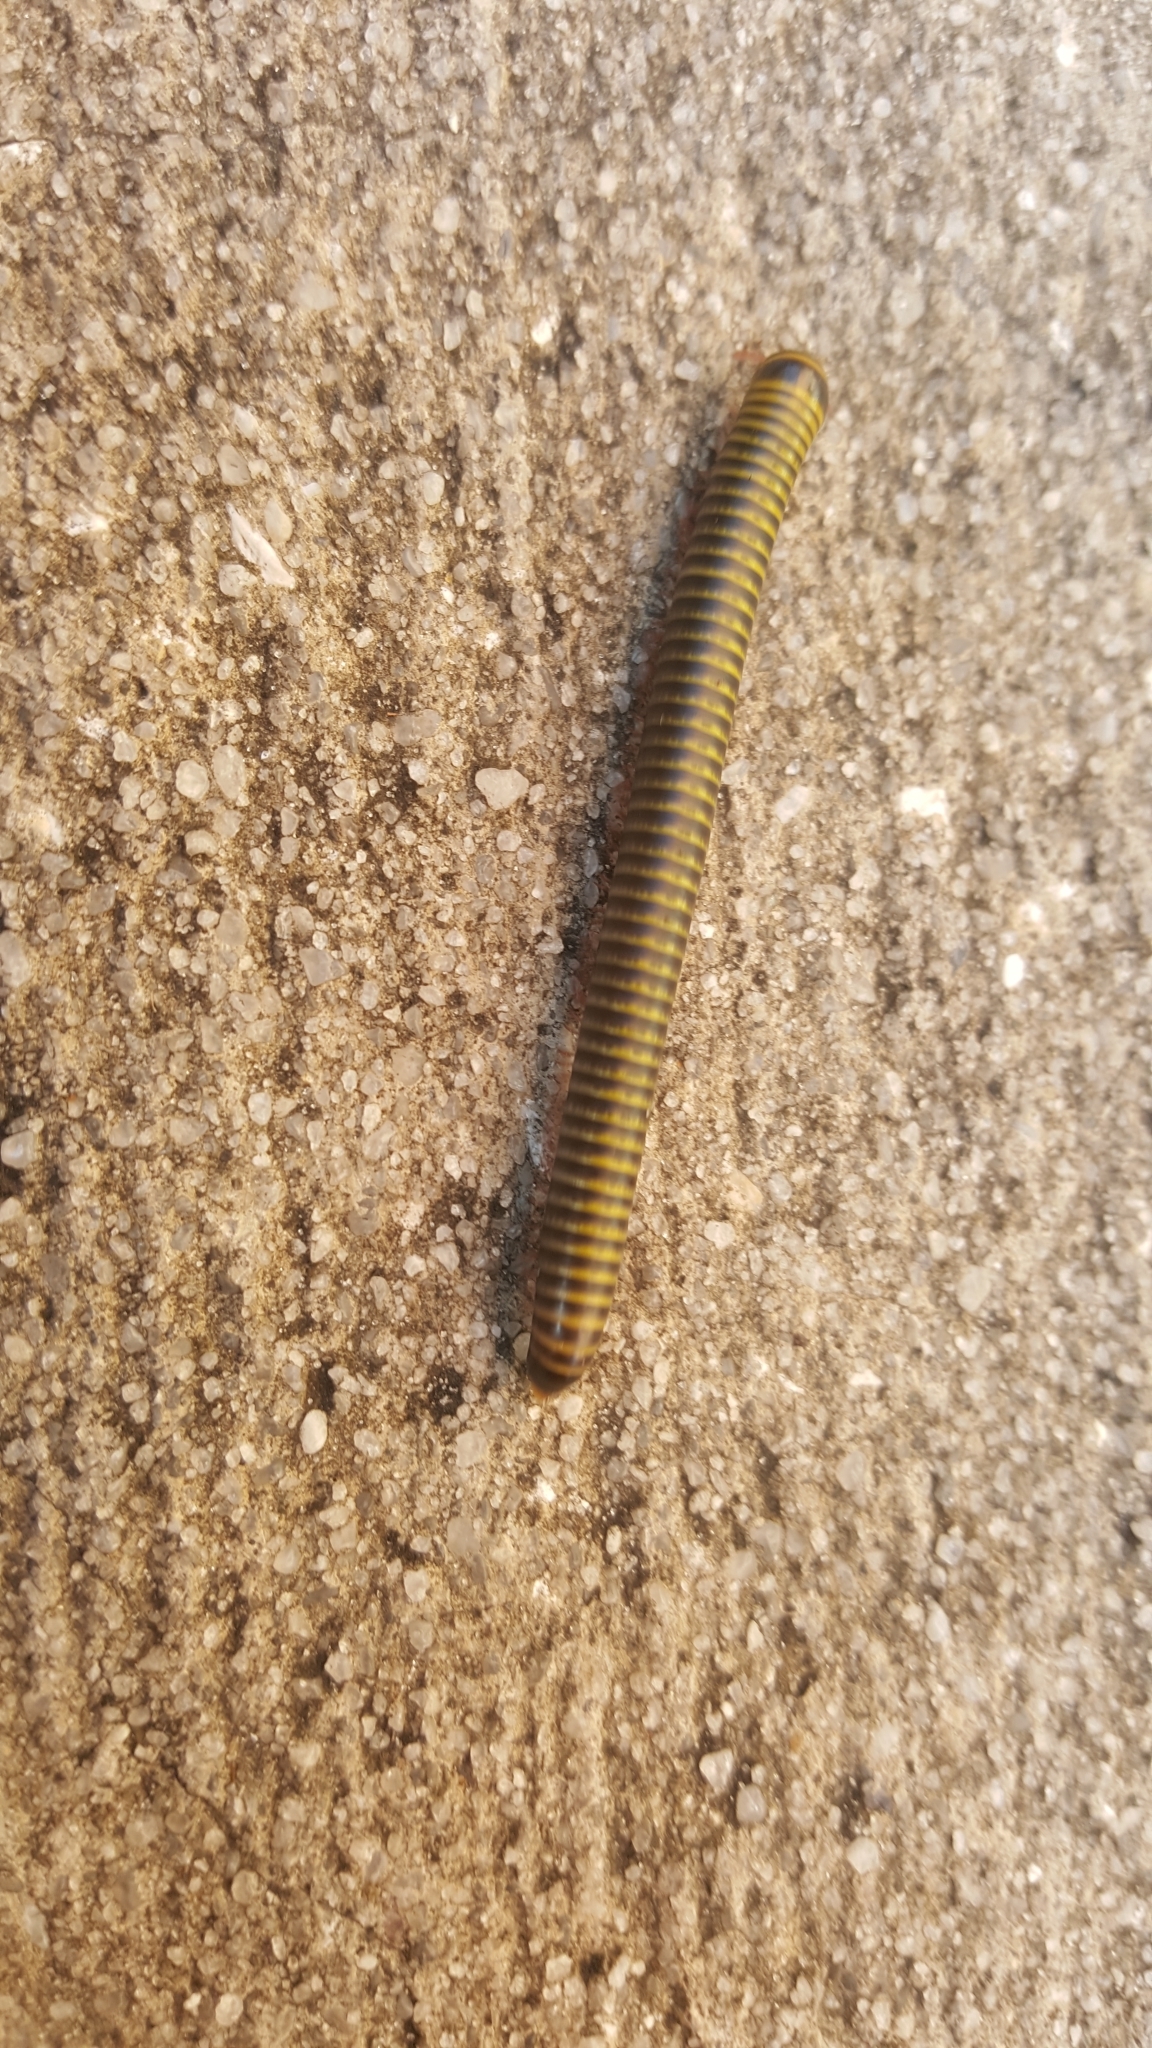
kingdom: Animalia
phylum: Arthropoda
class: Diplopoda
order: Spirobolida
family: Rhinocricidae
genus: Anadenobolus
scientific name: Anadenobolus monilicornis
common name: Caribbean millipede
